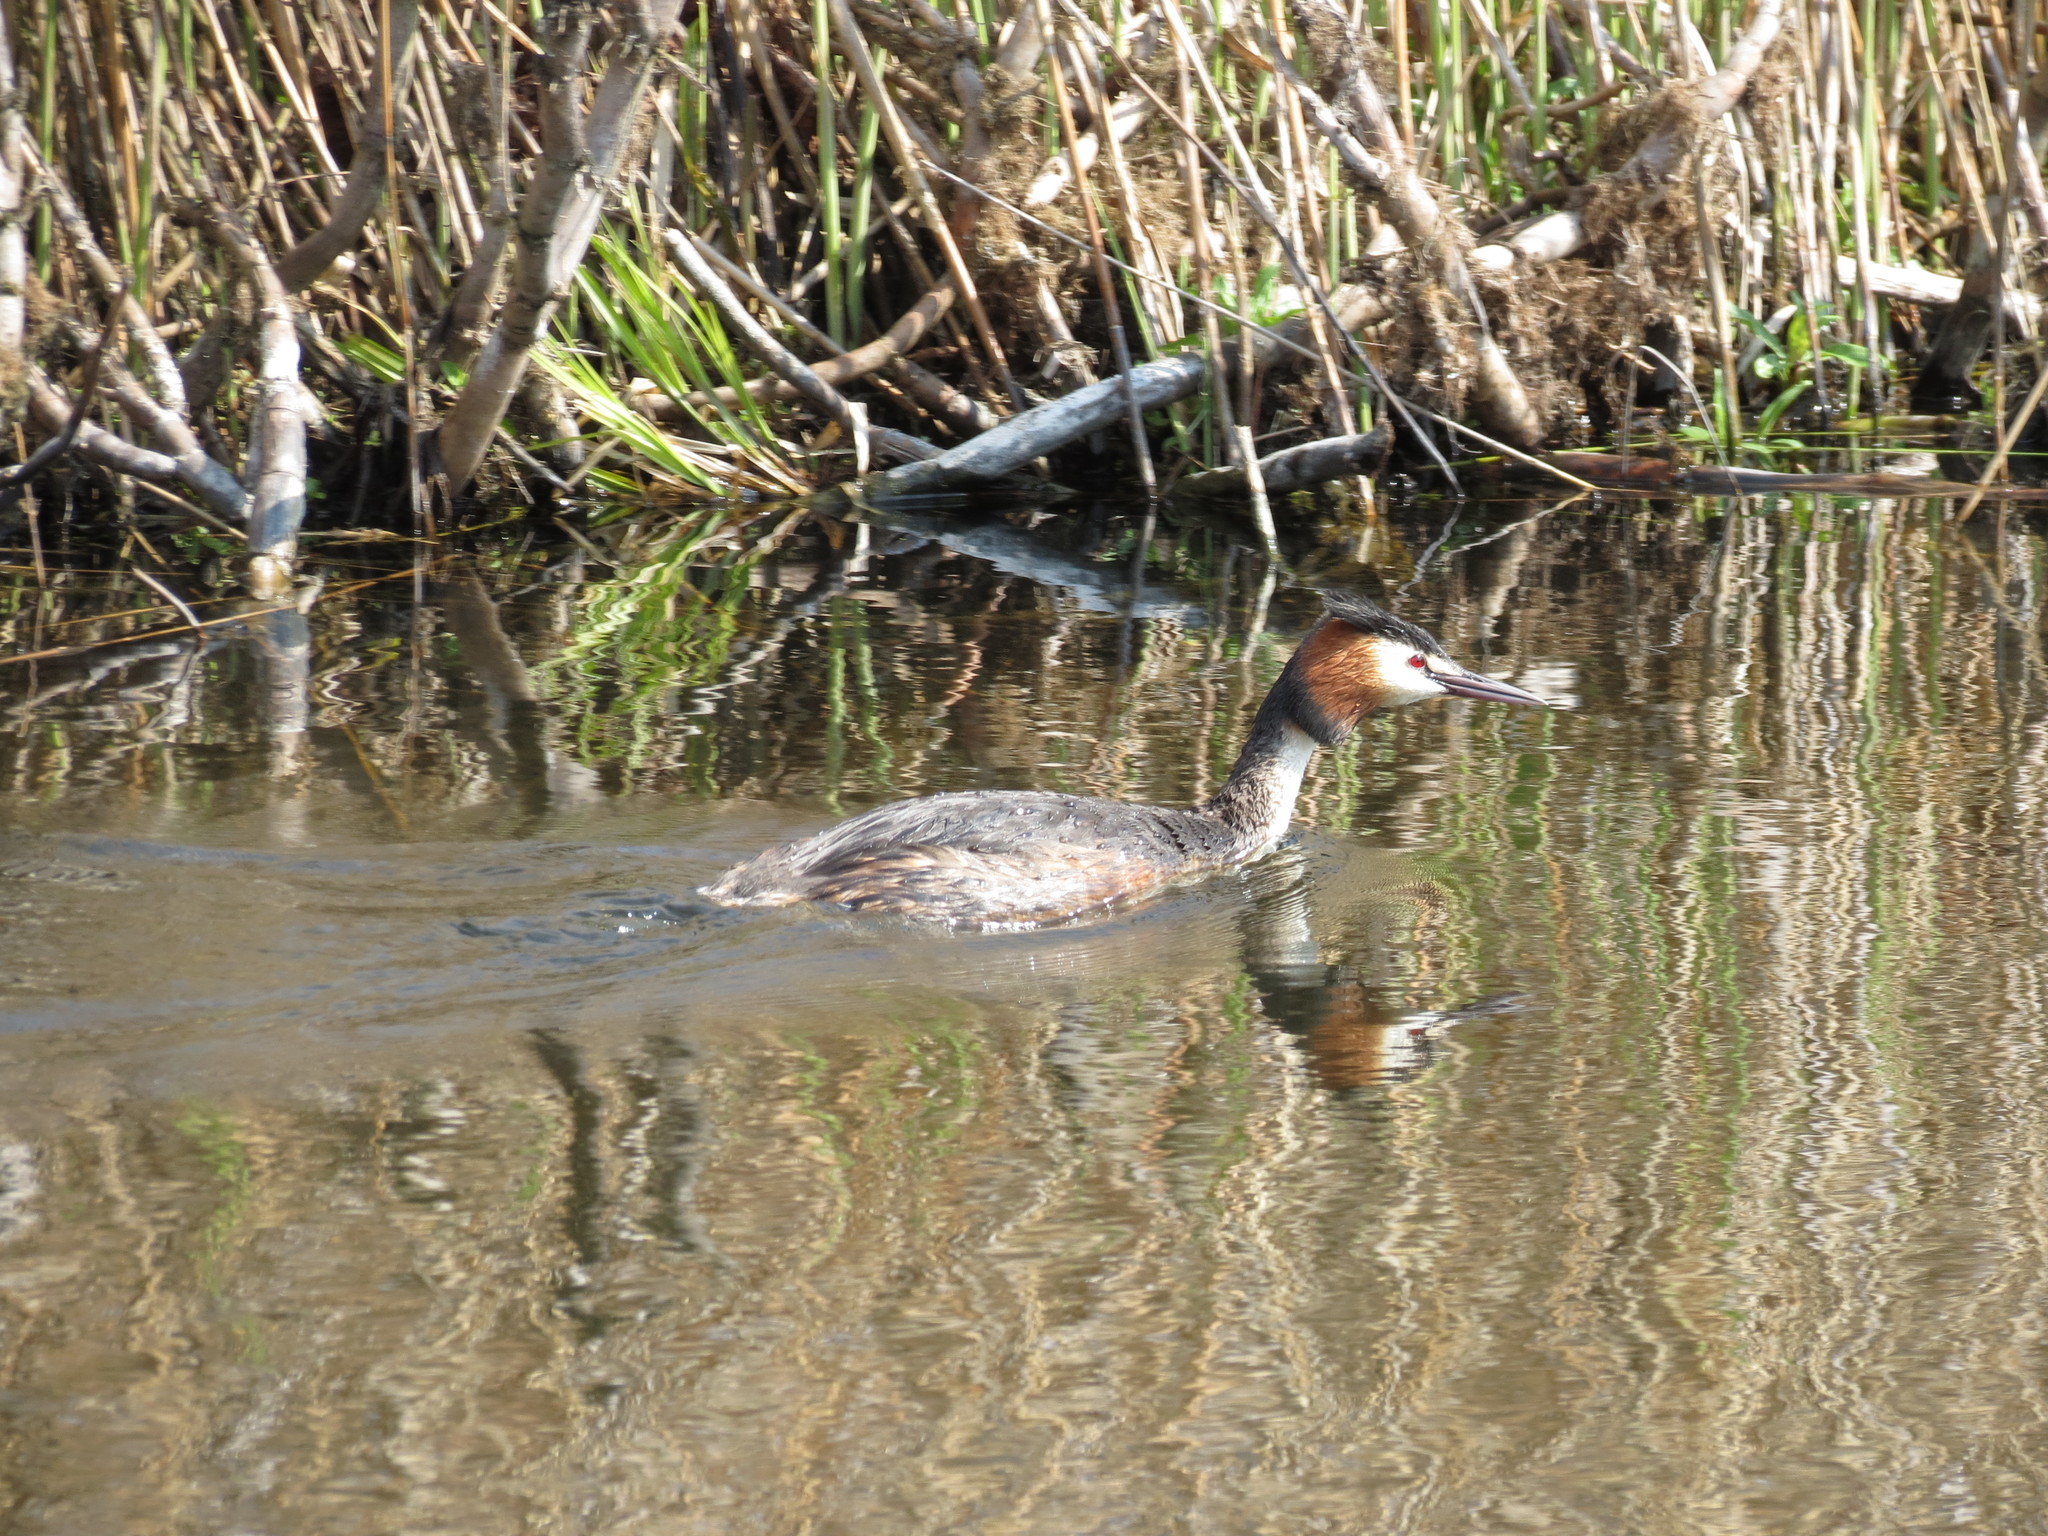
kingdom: Animalia
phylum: Chordata
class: Aves
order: Podicipediformes
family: Podicipedidae
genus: Podiceps
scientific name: Podiceps cristatus
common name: Great crested grebe
